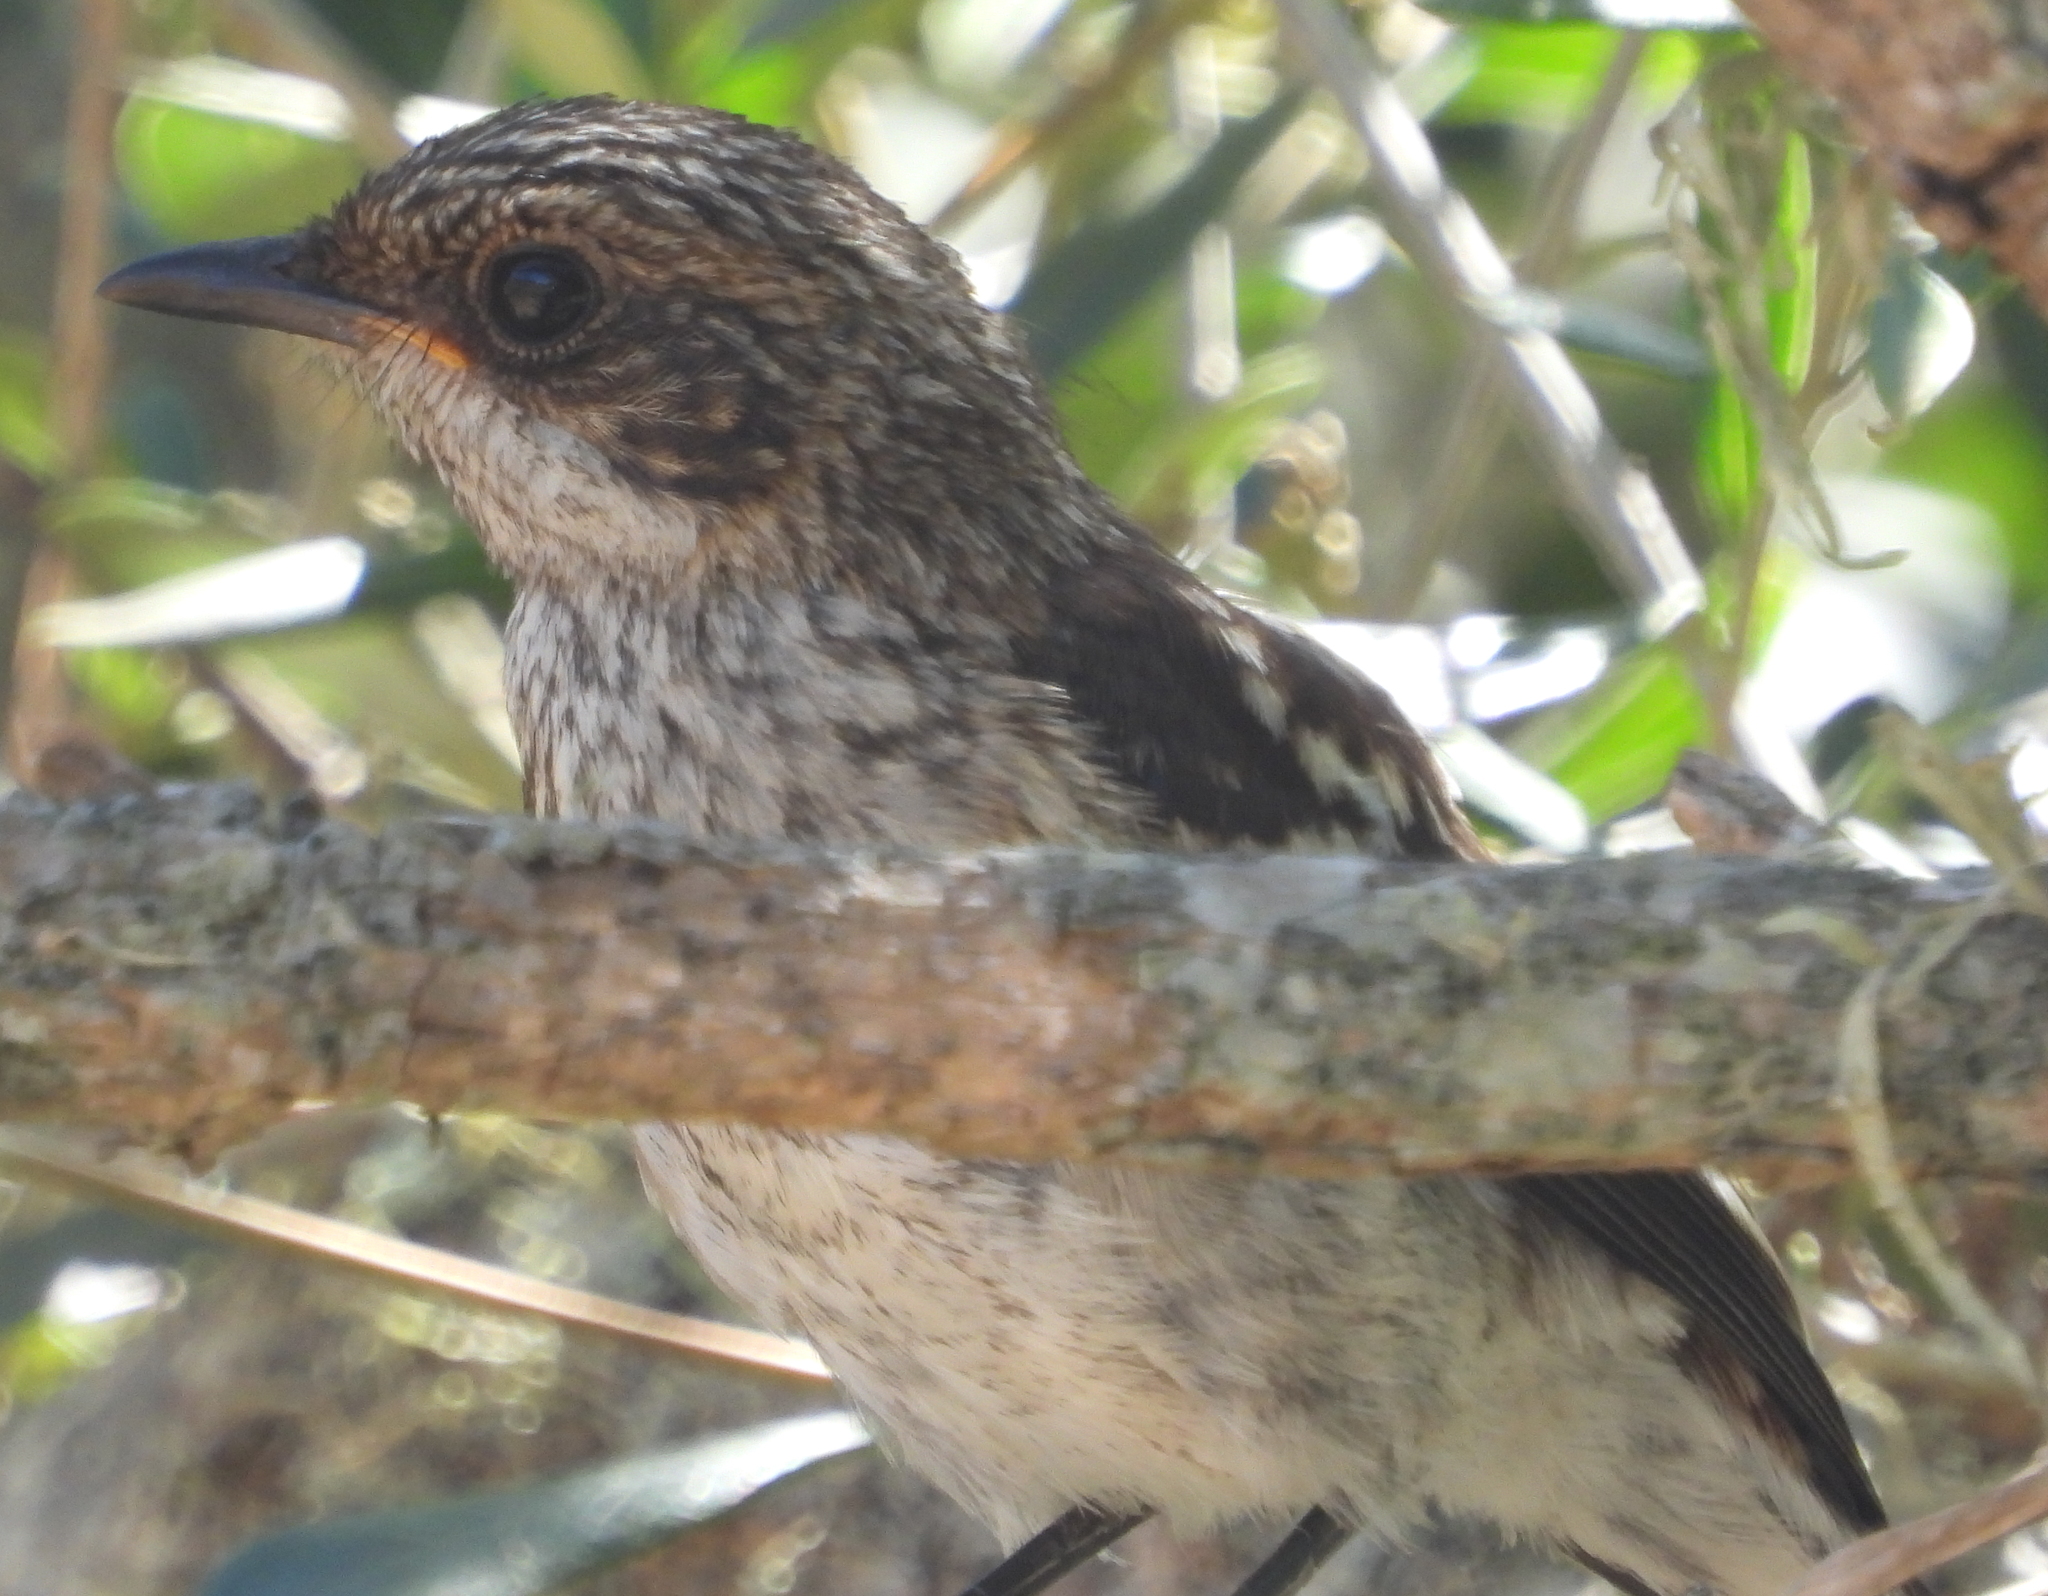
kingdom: Animalia
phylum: Chordata
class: Aves
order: Passeriformes
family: Muscicapidae
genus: Sigelus
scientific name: Sigelus silens
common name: Fiscal flycatcher
